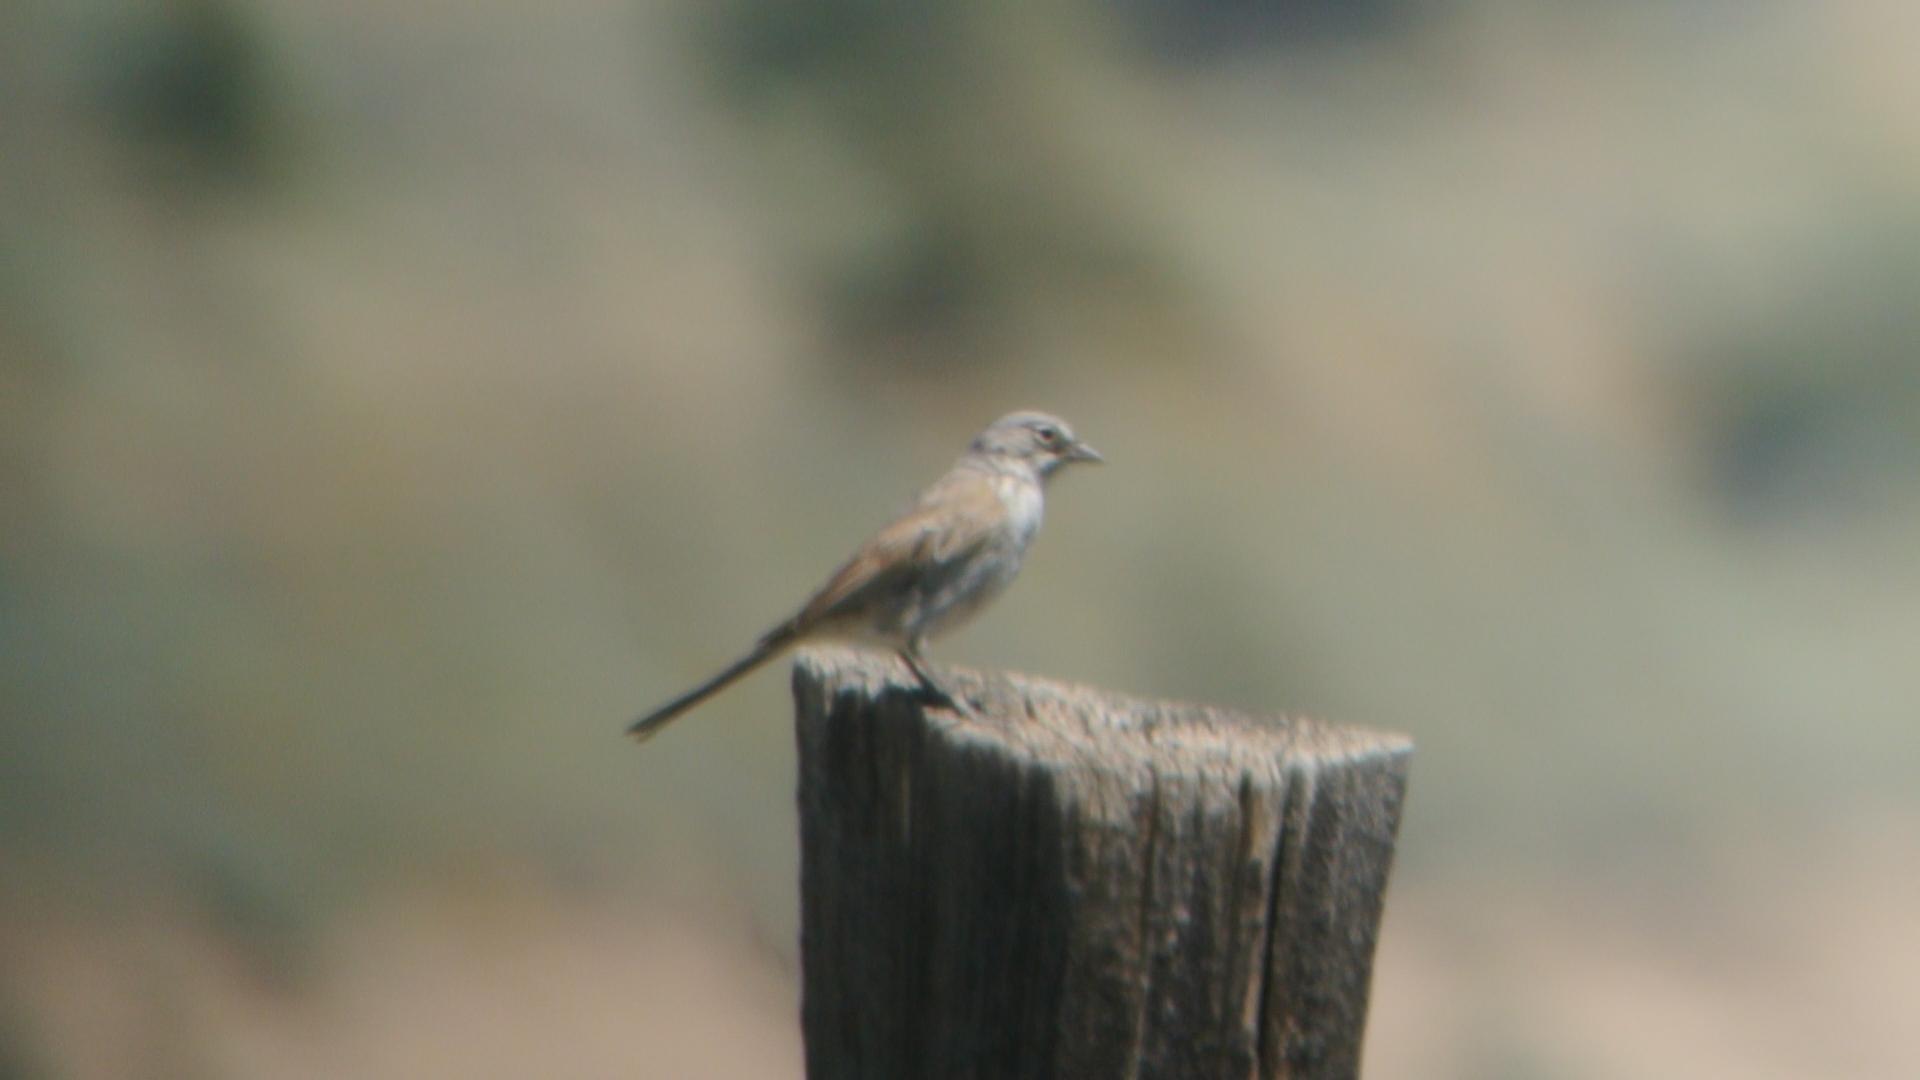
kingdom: Animalia
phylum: Chordata
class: Aves
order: Passeriformes
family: Passerellidae
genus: Artemisiospiza
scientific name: Artemisiospiza nevadensis
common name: Sagebrush sparrow
